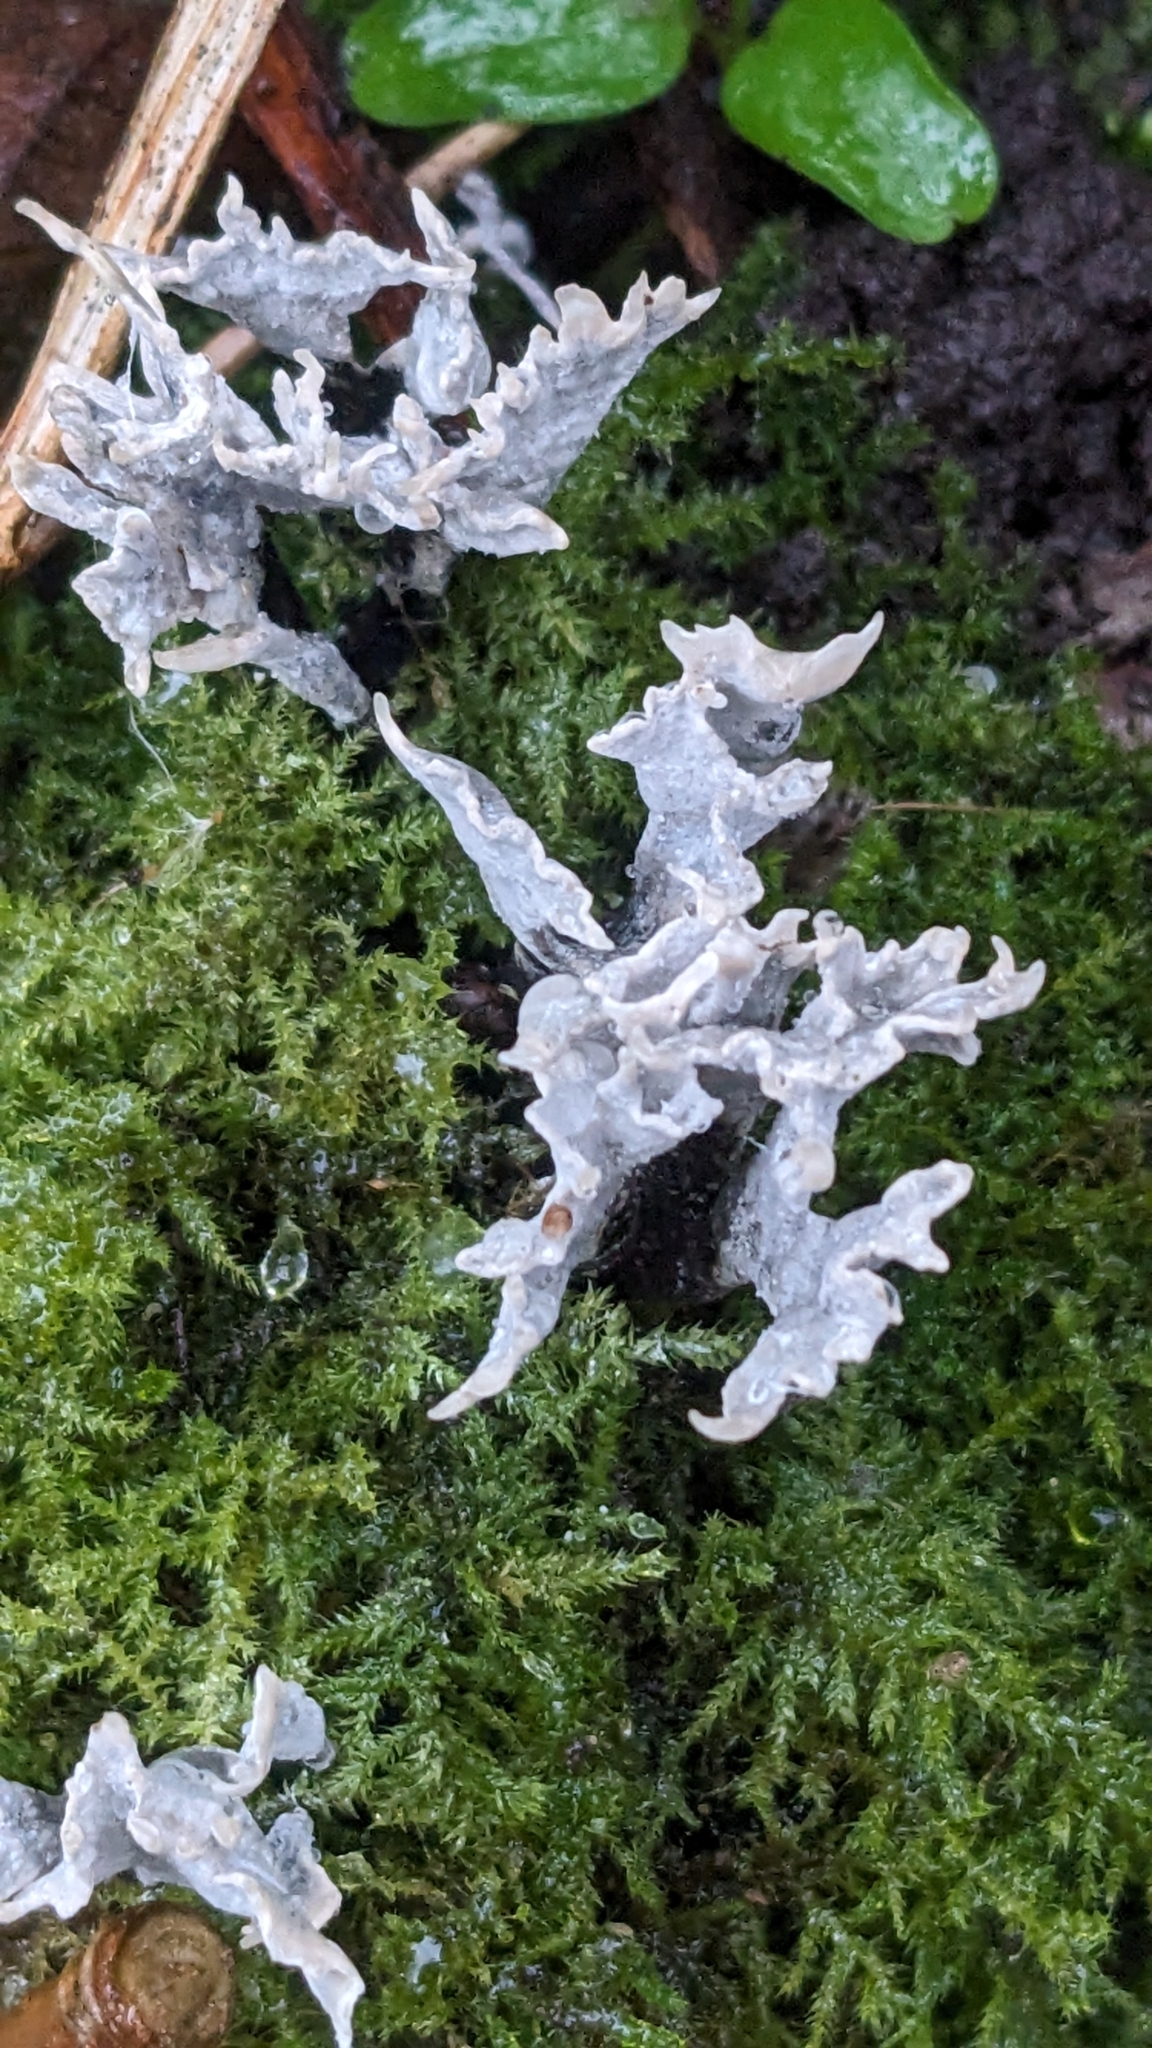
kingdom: Fungi
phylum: Ascomycota
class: Sordariomycetes
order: Xylariales
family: Xylariaceae
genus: Xylaria
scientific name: Xylaria hypoxylon
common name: Candle-snuff fungus
